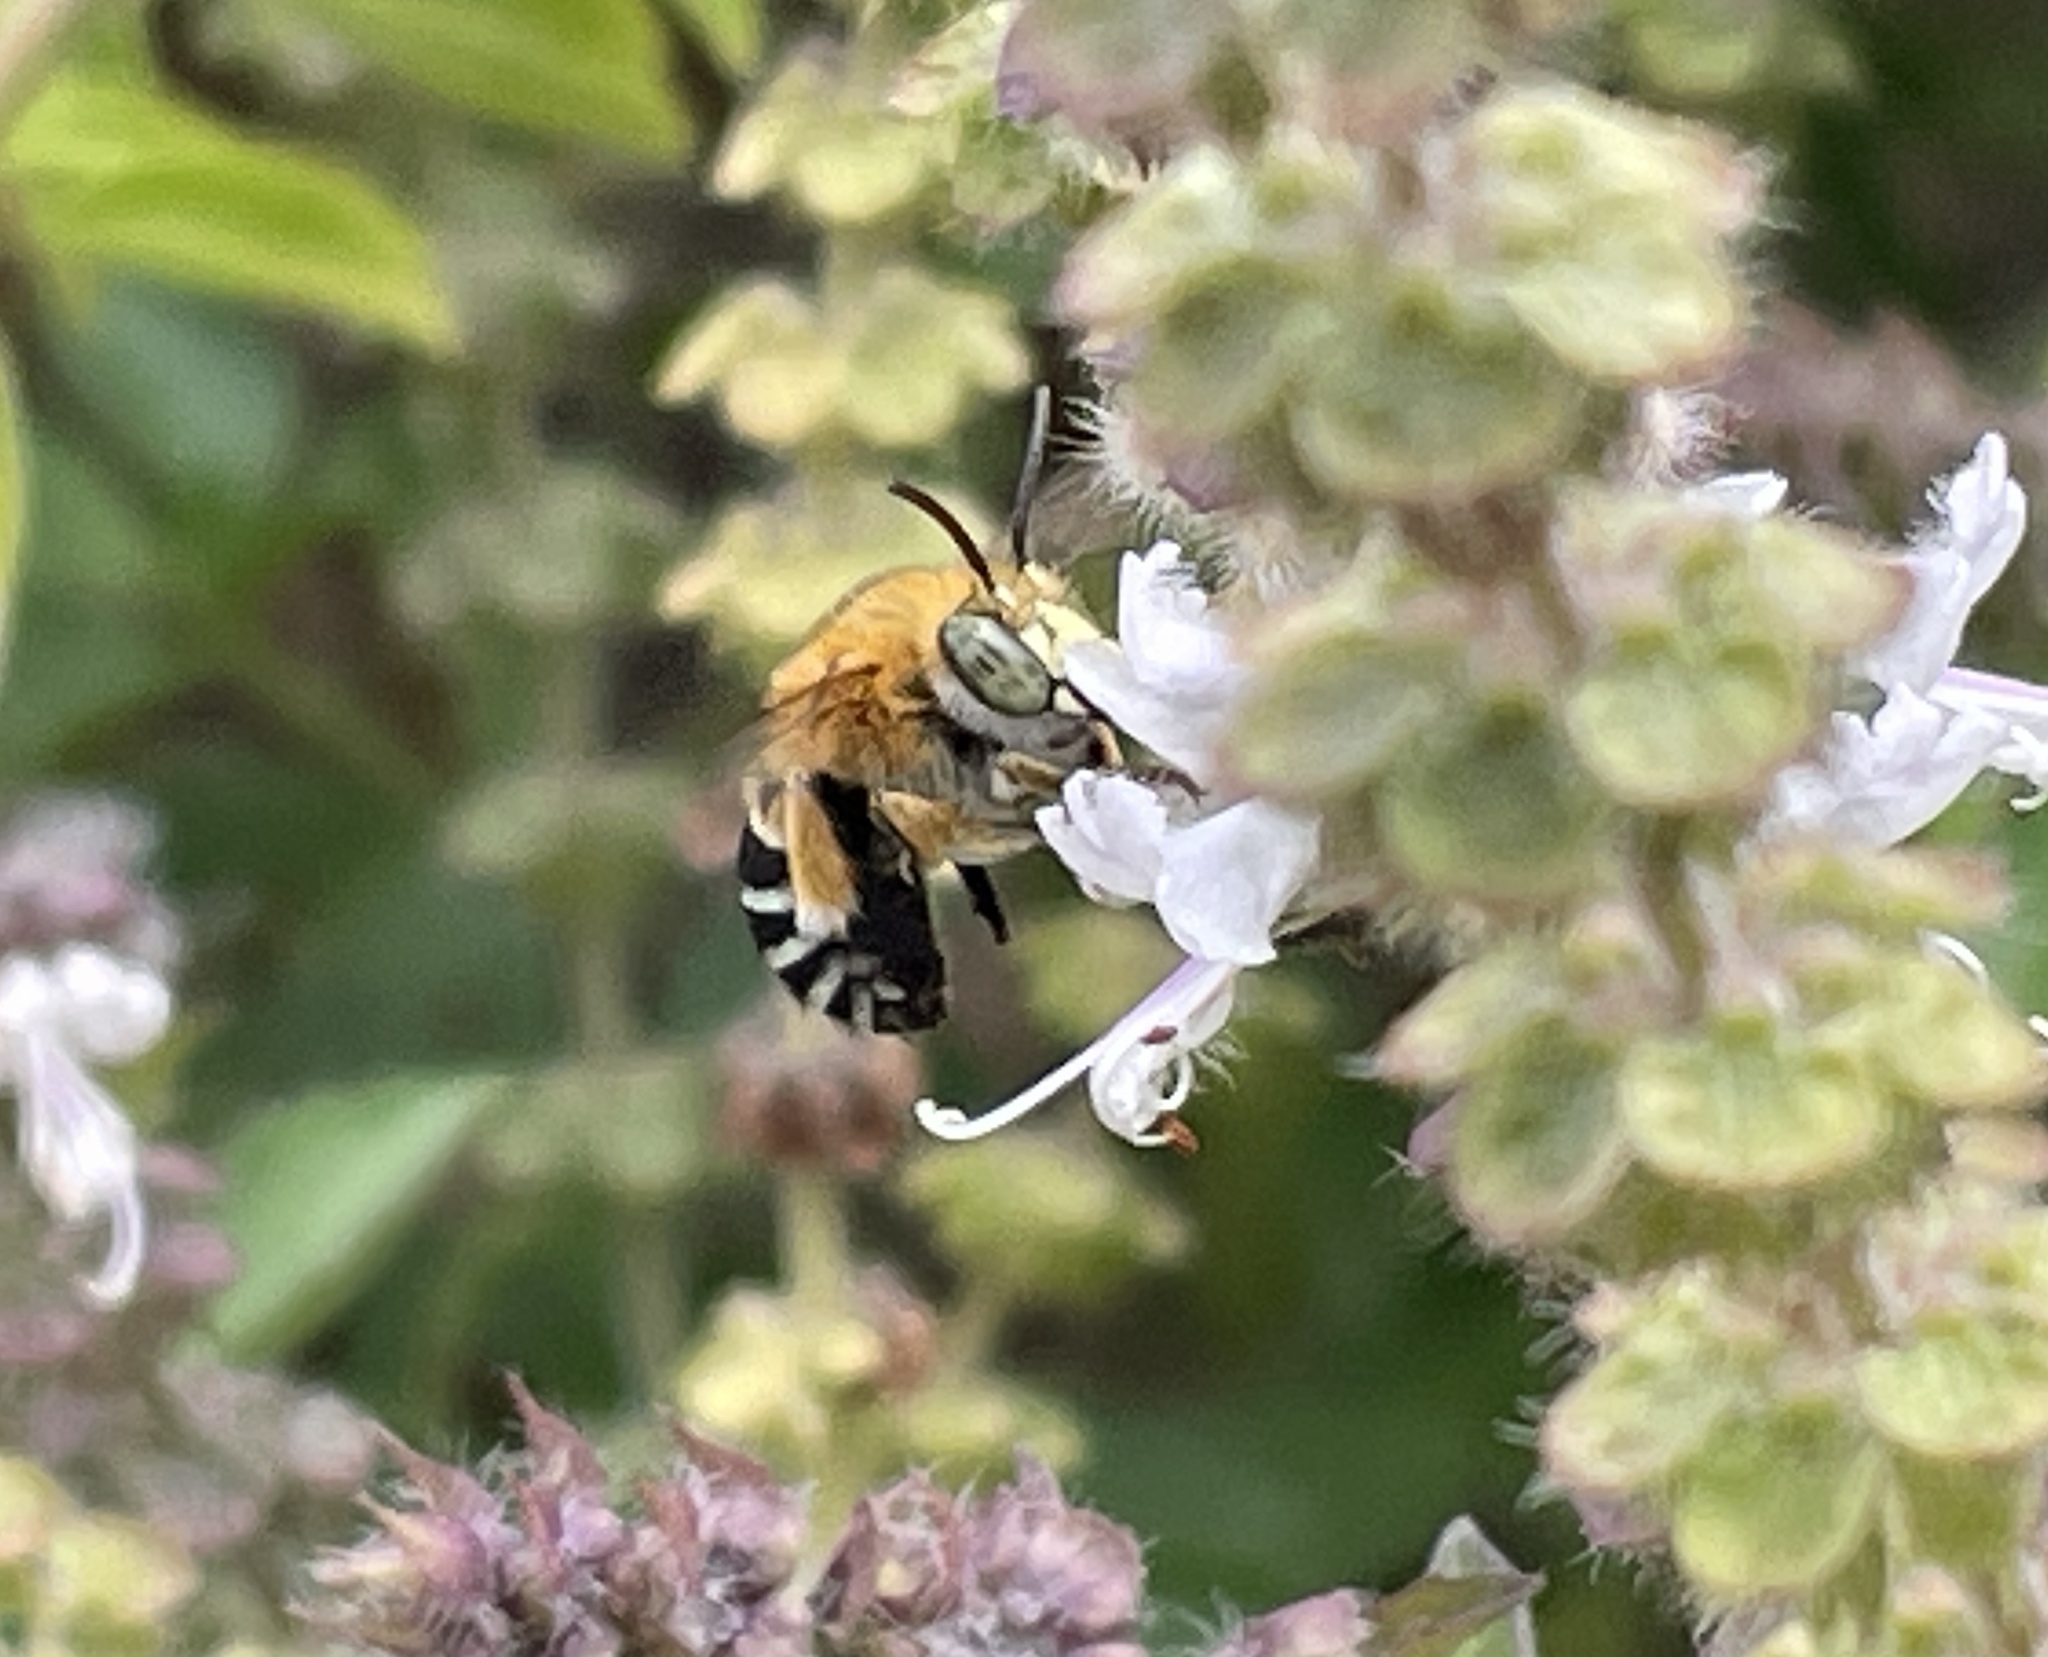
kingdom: Animalia
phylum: Arthropoda
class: Insecta
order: Hymenoptera
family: Apidae
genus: Amegilla
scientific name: Amegilla cingulata
